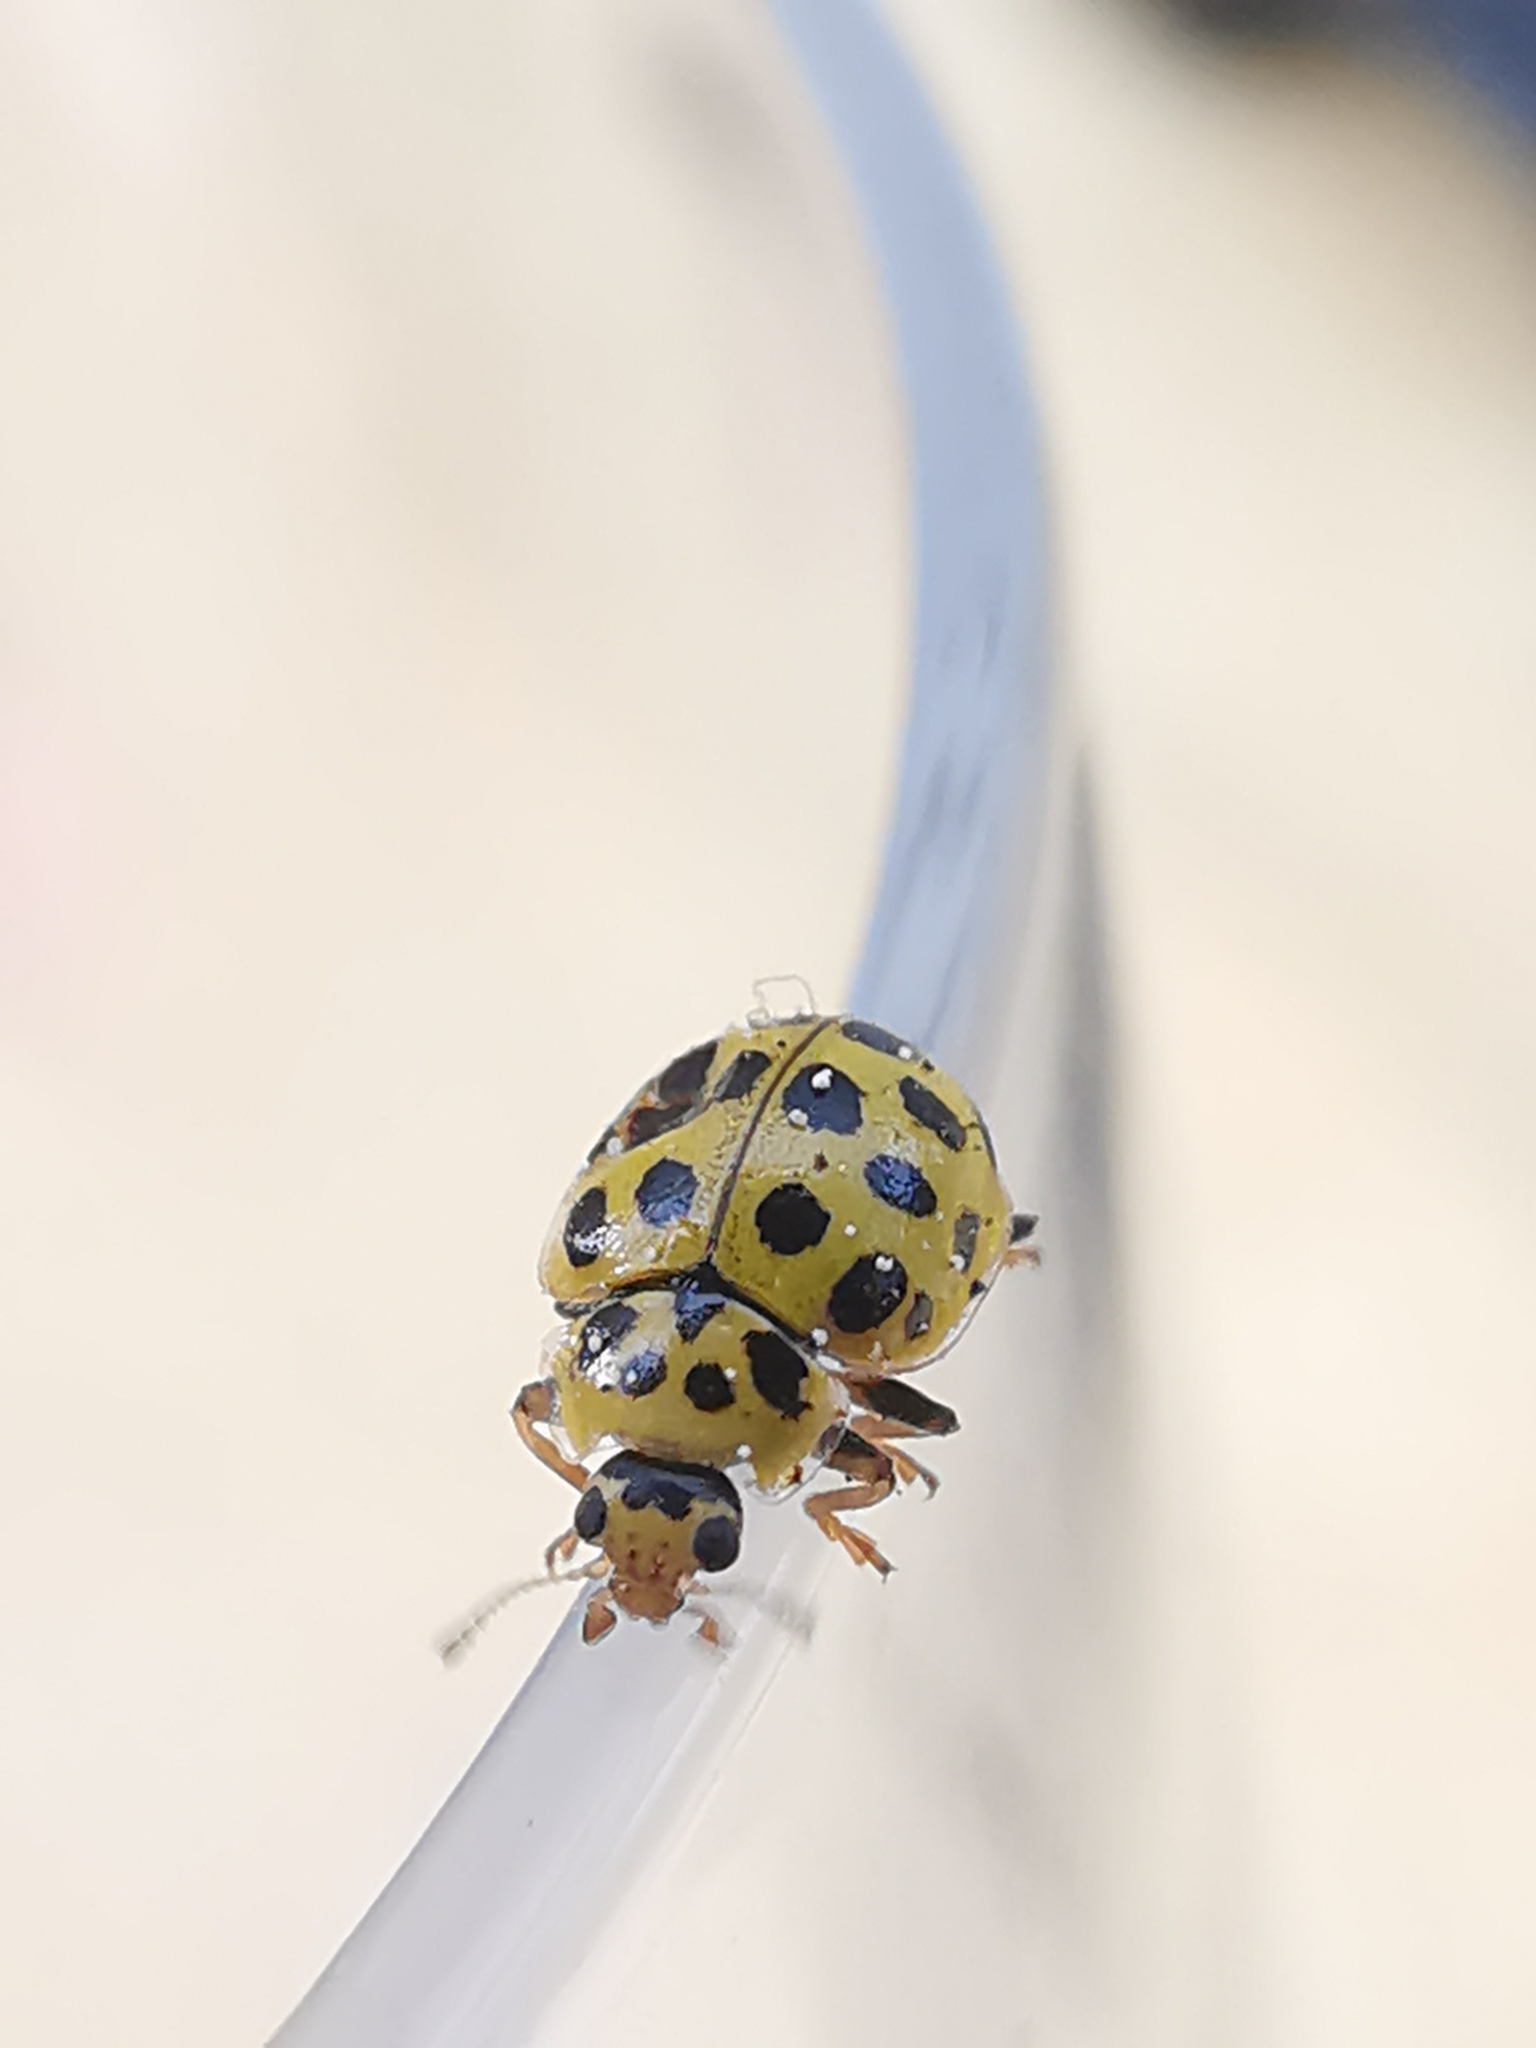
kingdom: Animalia
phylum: Arthropoda
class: Insecta
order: Coleoptera
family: Coccinellidae
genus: Psyllobora
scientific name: Psyllobora vigintiduopunctata
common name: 22-spot ladybird
